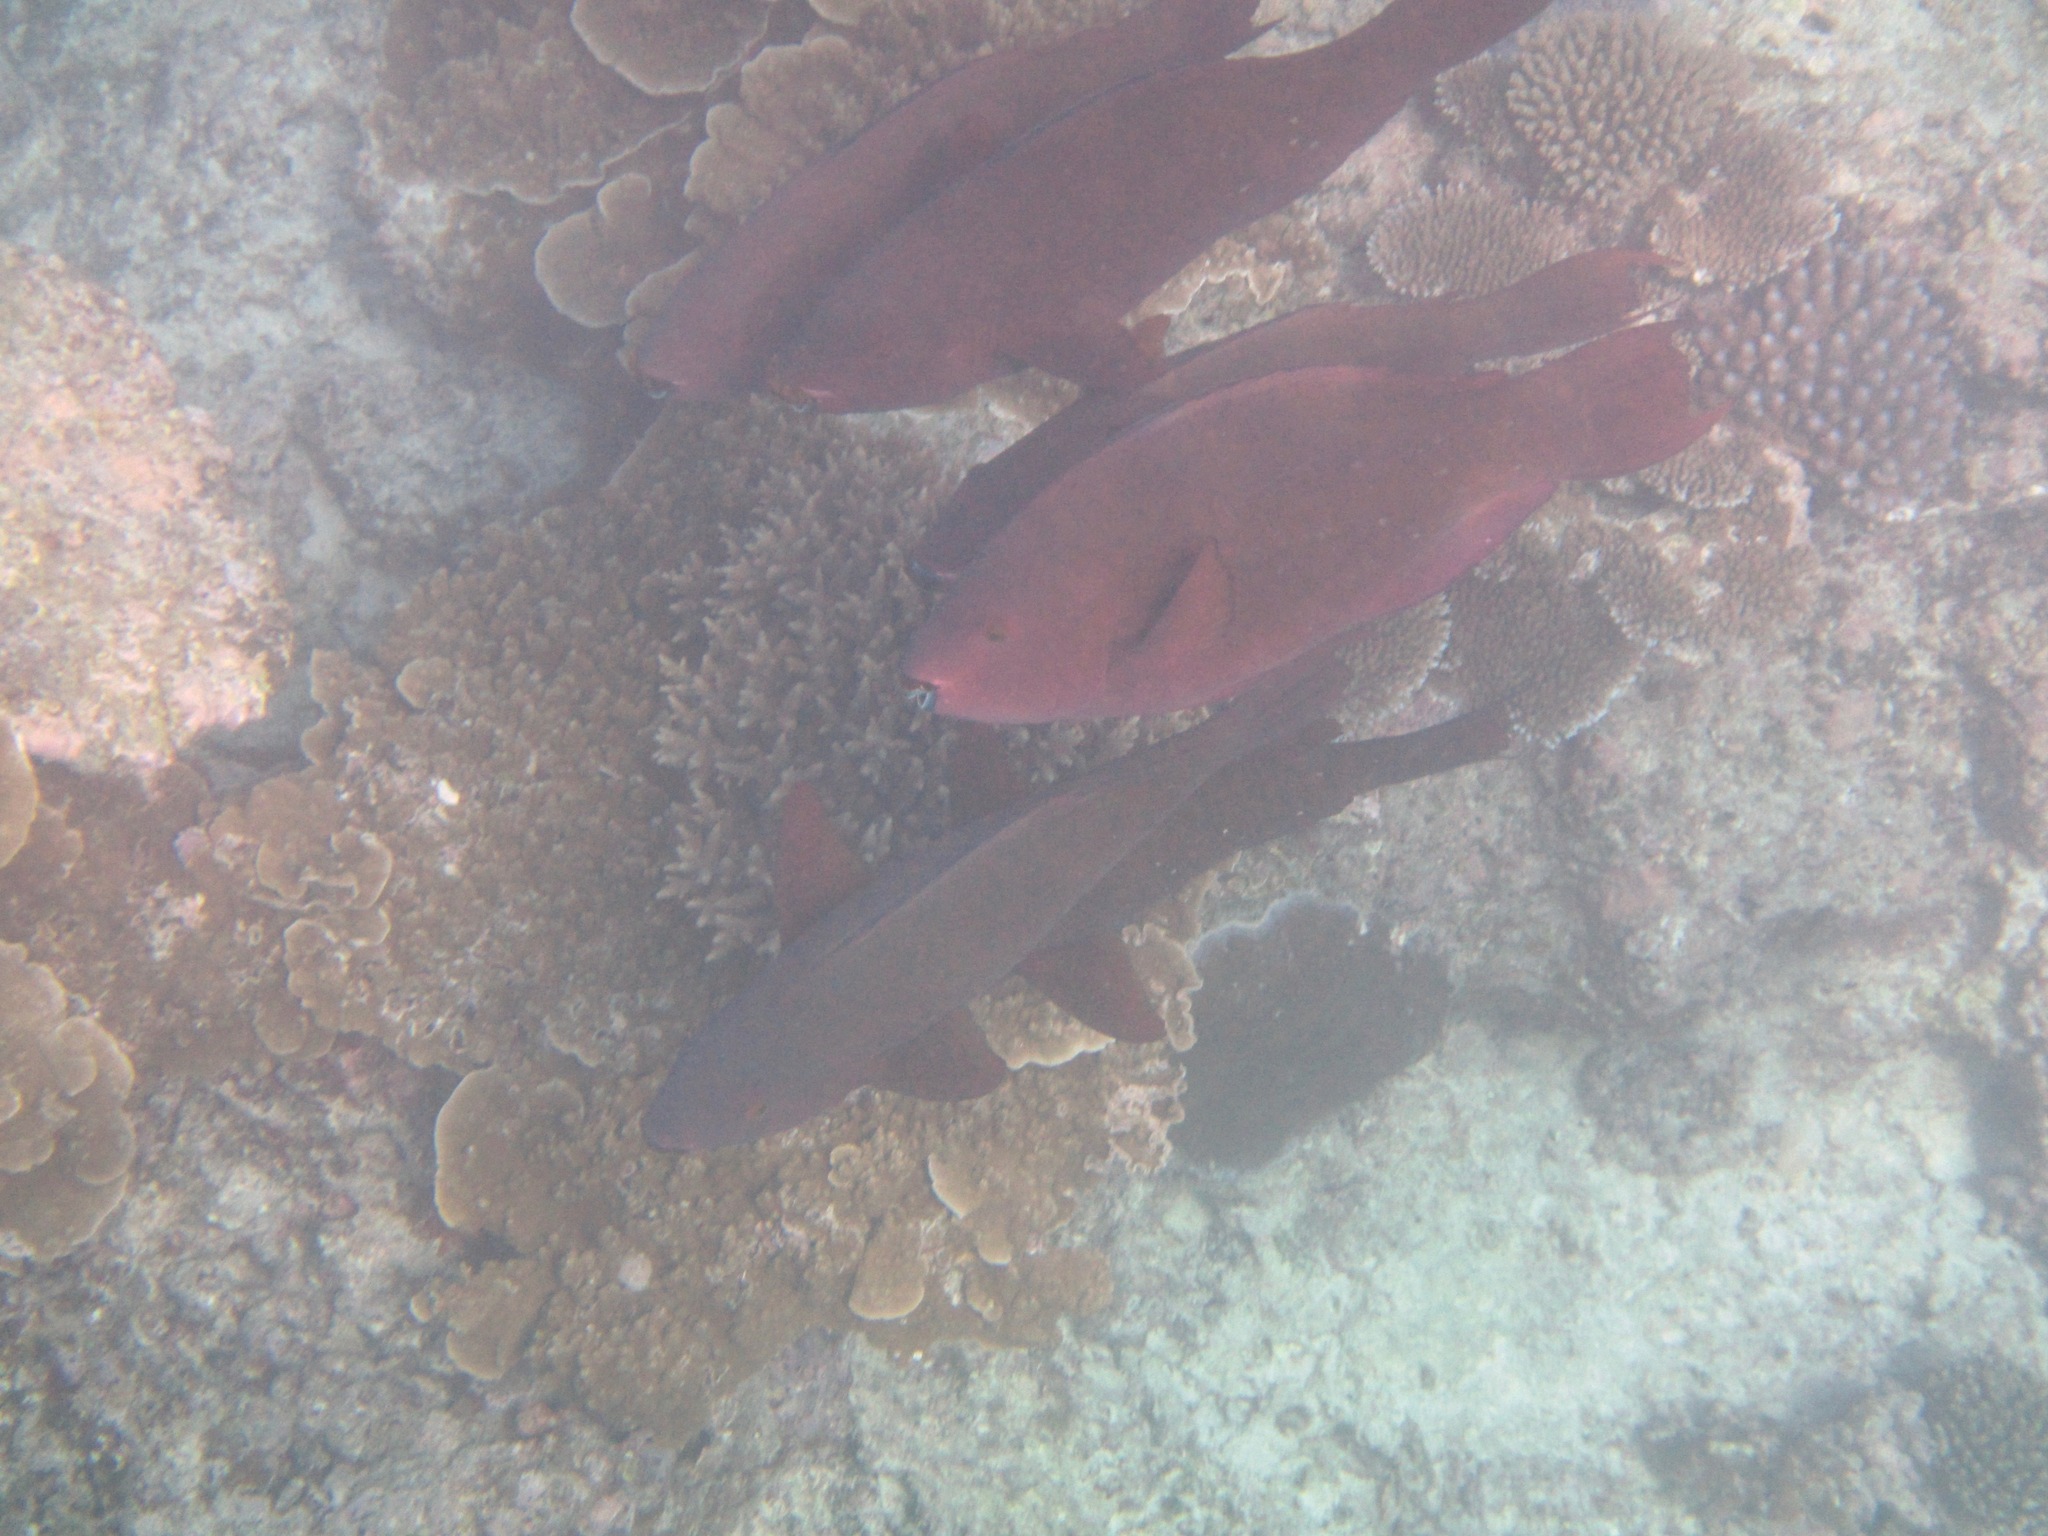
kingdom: Animalia
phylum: Chordata
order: Perciformes
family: Scaridae
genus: Scarus
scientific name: Scarus xanthopleura
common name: Red parrotfish
